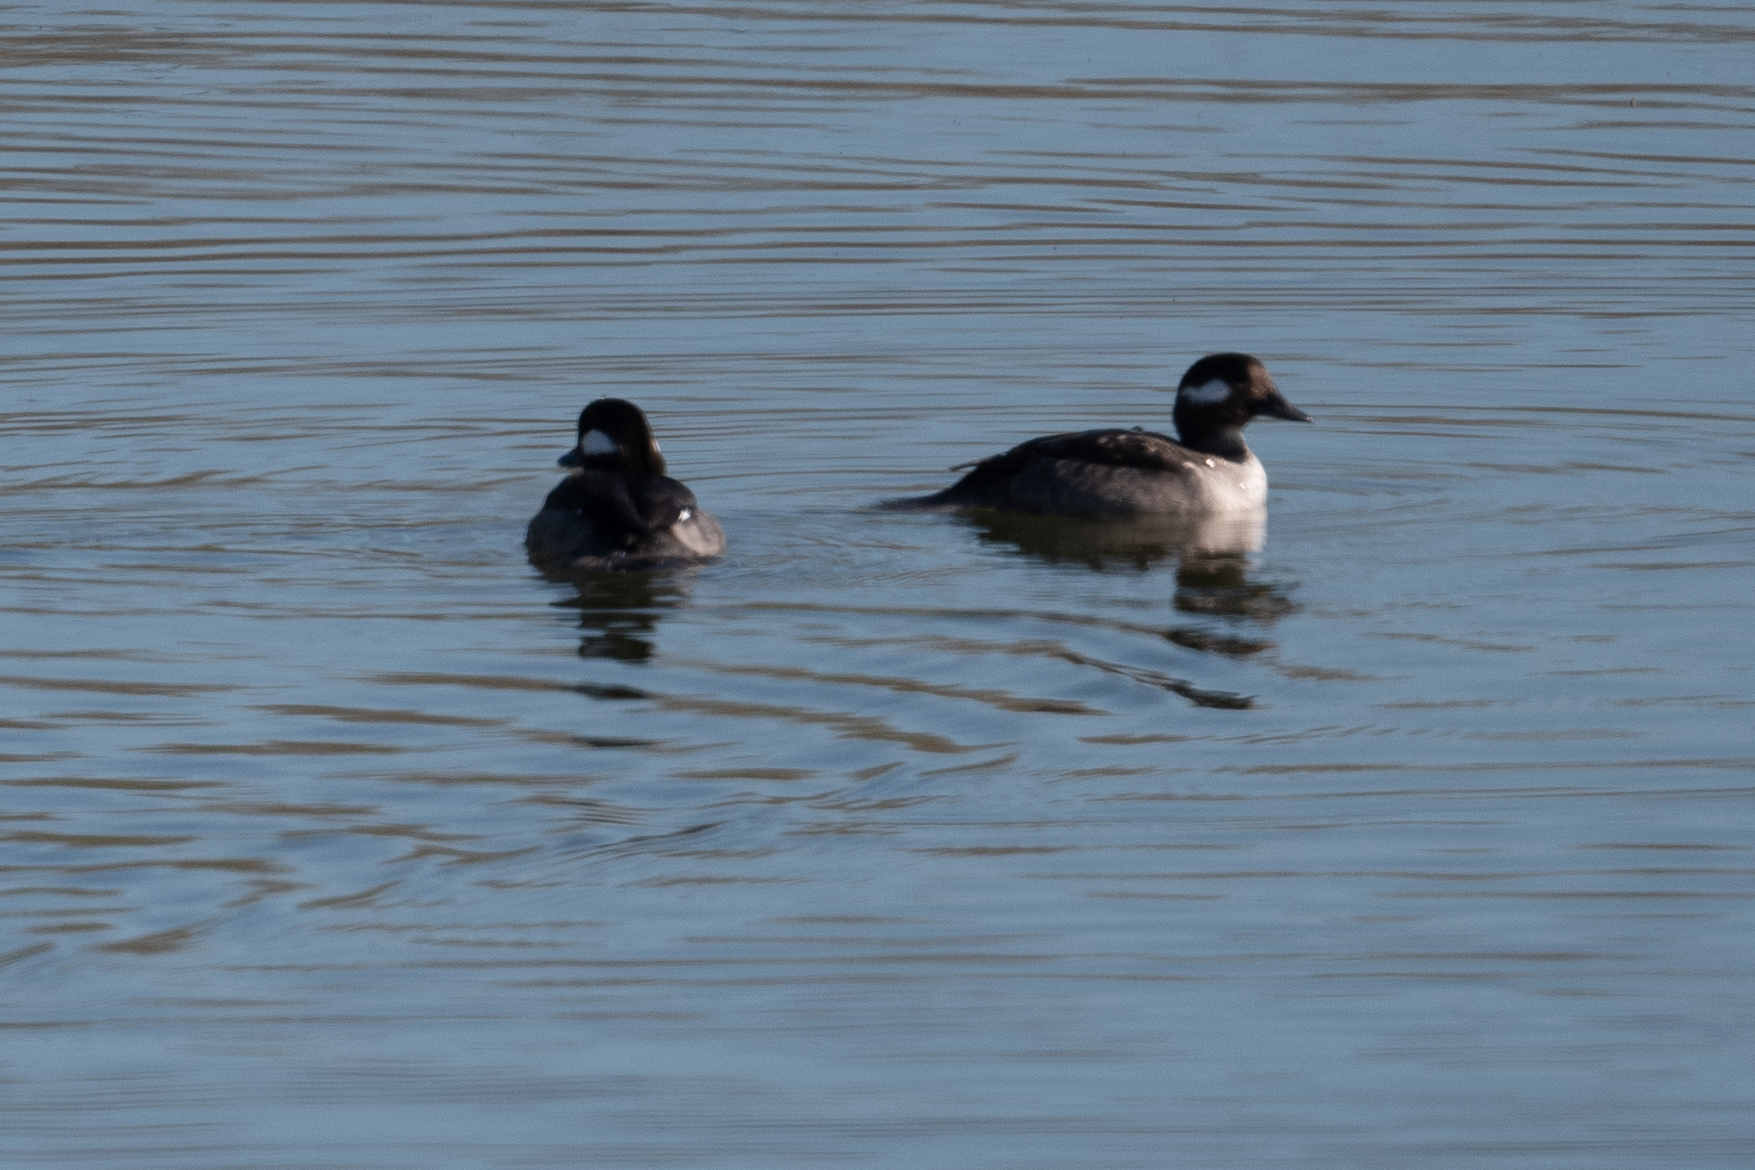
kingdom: Animalia
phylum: Chordata
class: Aves
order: Anseriformes
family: Anatidae
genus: Bucephala
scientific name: Bucephala albeola
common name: Bufflehead
